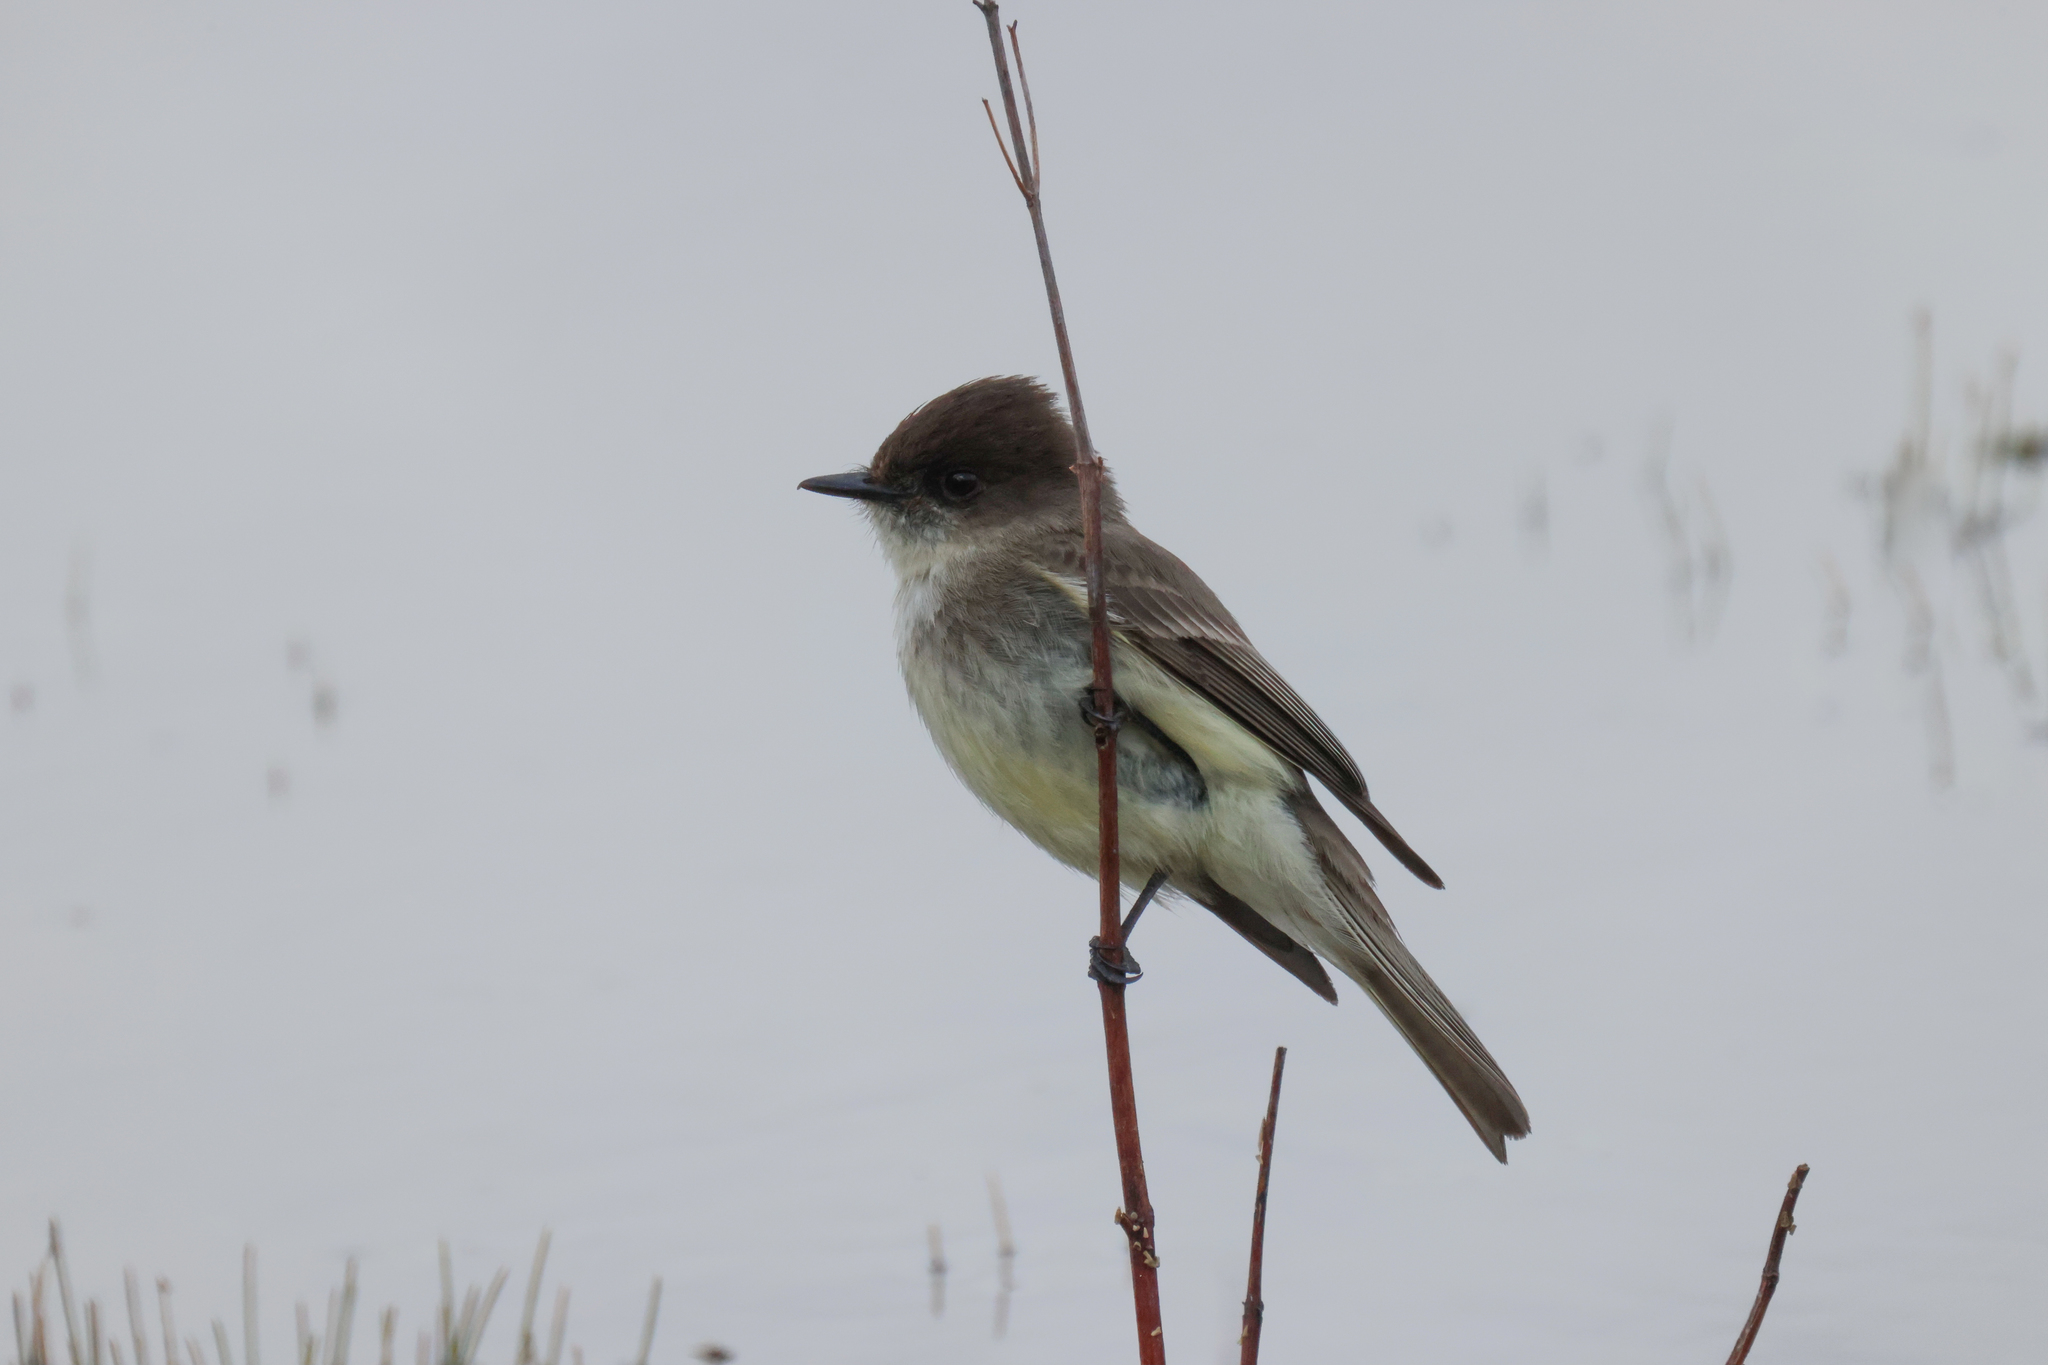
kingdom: Animalia
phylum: Chordata
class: Aves
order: Passeriformes
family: Tyrannidae
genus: Sayornis
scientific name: Sayornis phoebe
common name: Eastern phoebe
